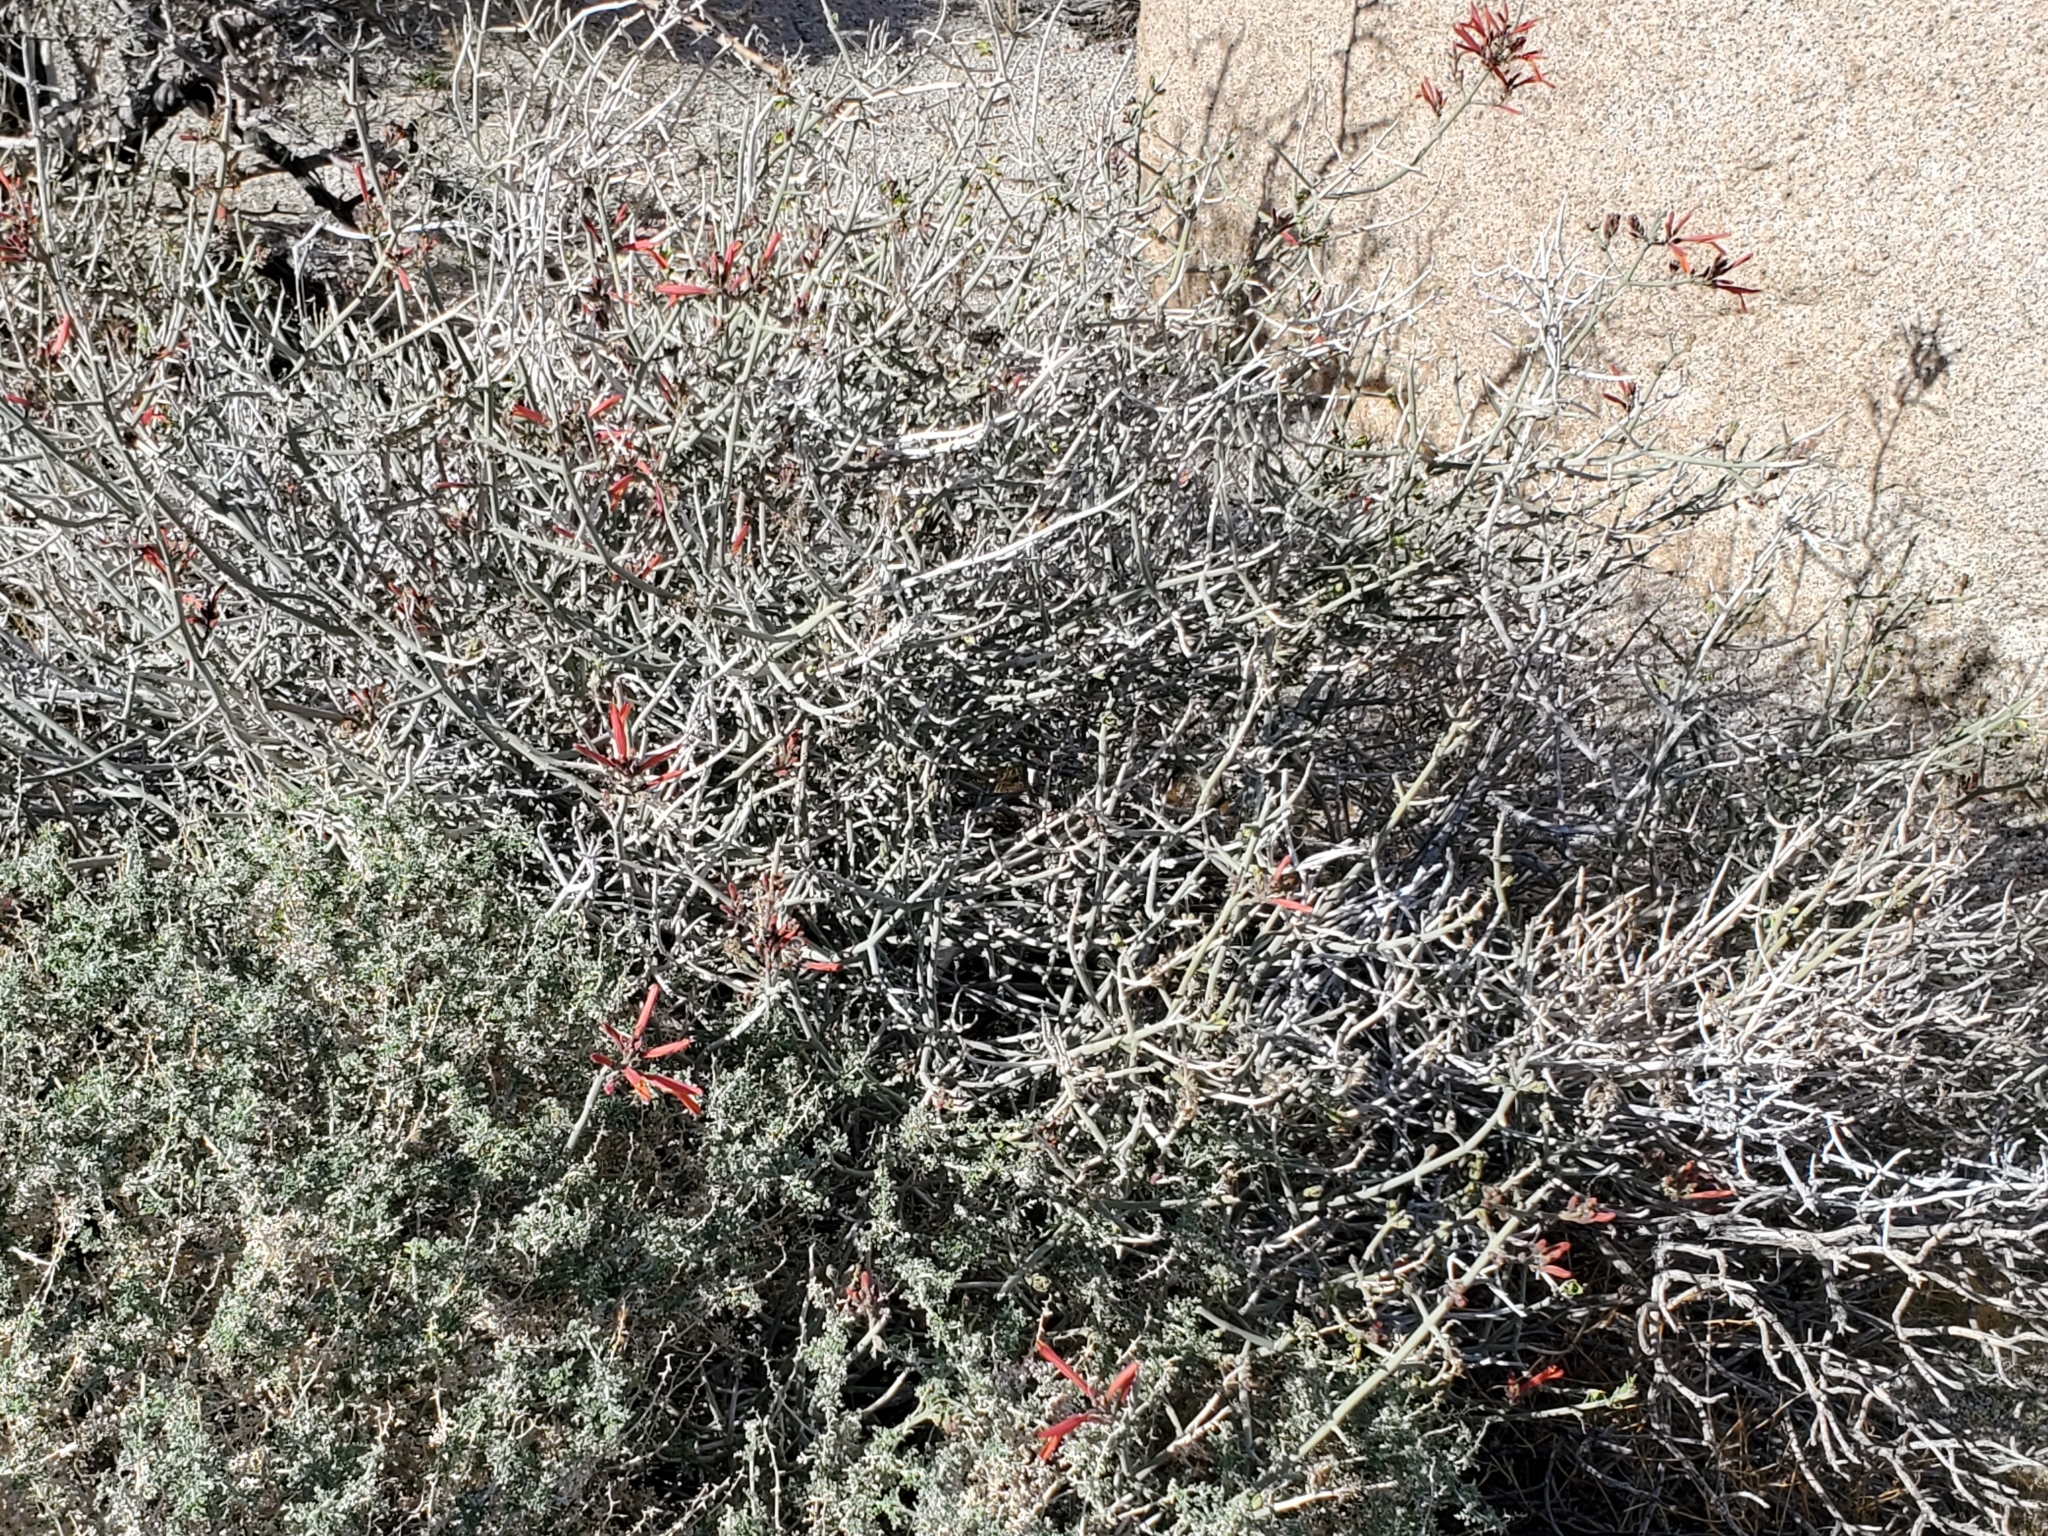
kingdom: Plantae
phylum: Tracheophyta
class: Magnoliopsida
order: Lamiales
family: Acanthaceae
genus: Justicia
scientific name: Justicia californica
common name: Chuparosa-honeysuckle
